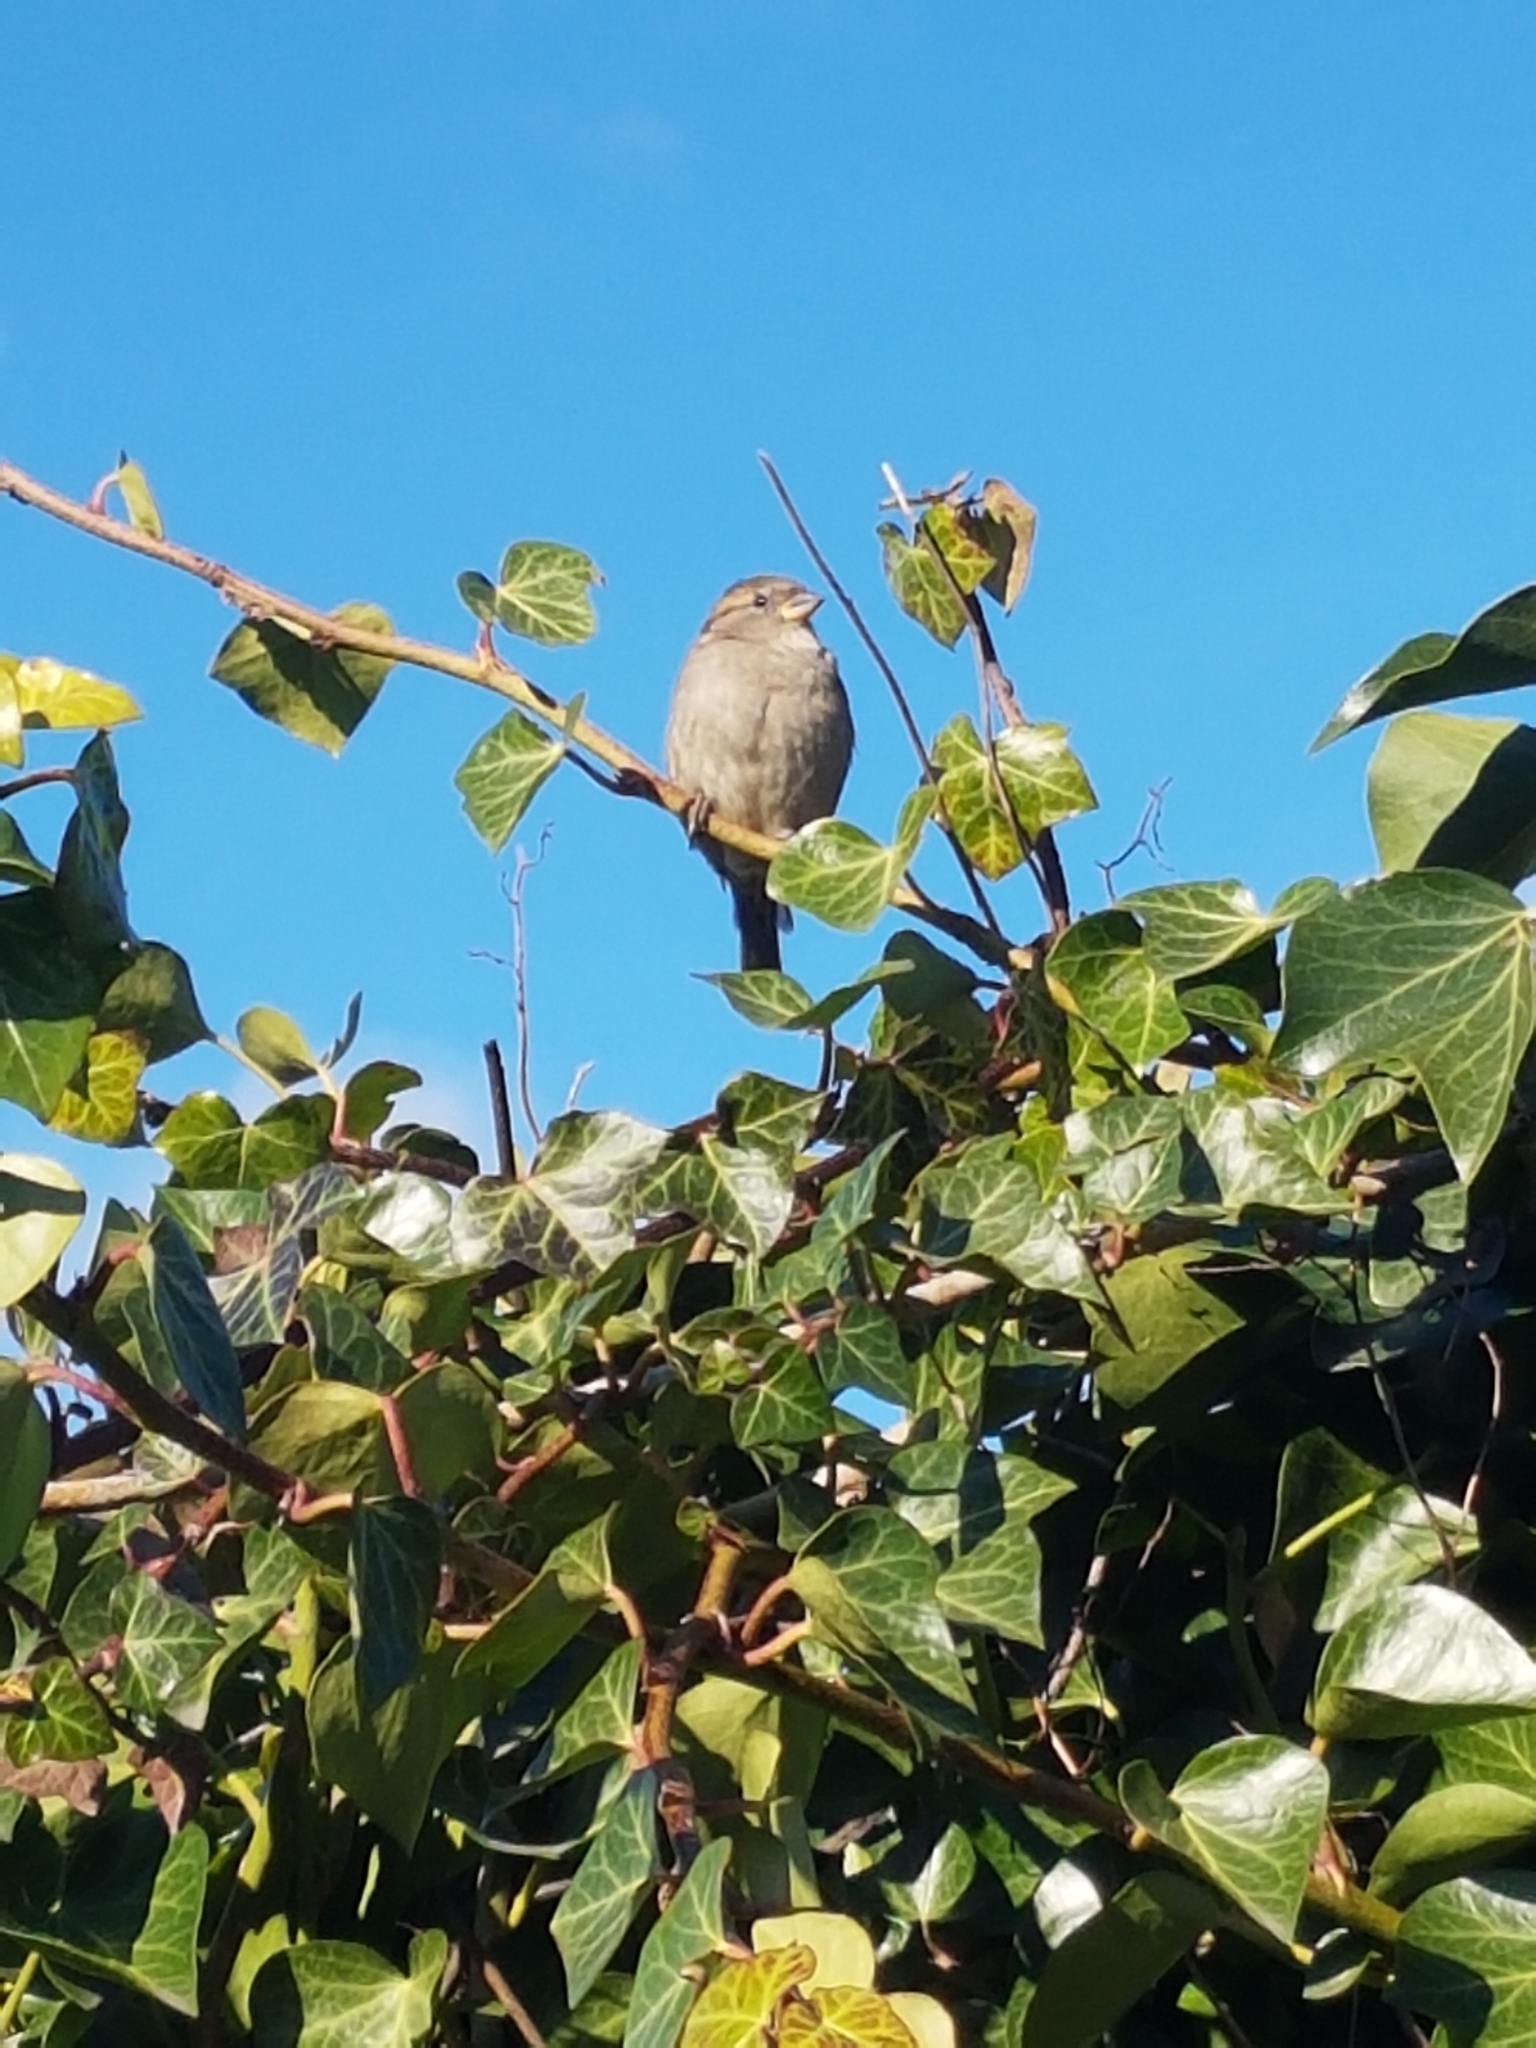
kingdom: Animalia
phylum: Chordata
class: Aves
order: Passeriformes
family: Passeridae
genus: Passer
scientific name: Passer domesticus
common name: House sparrow
